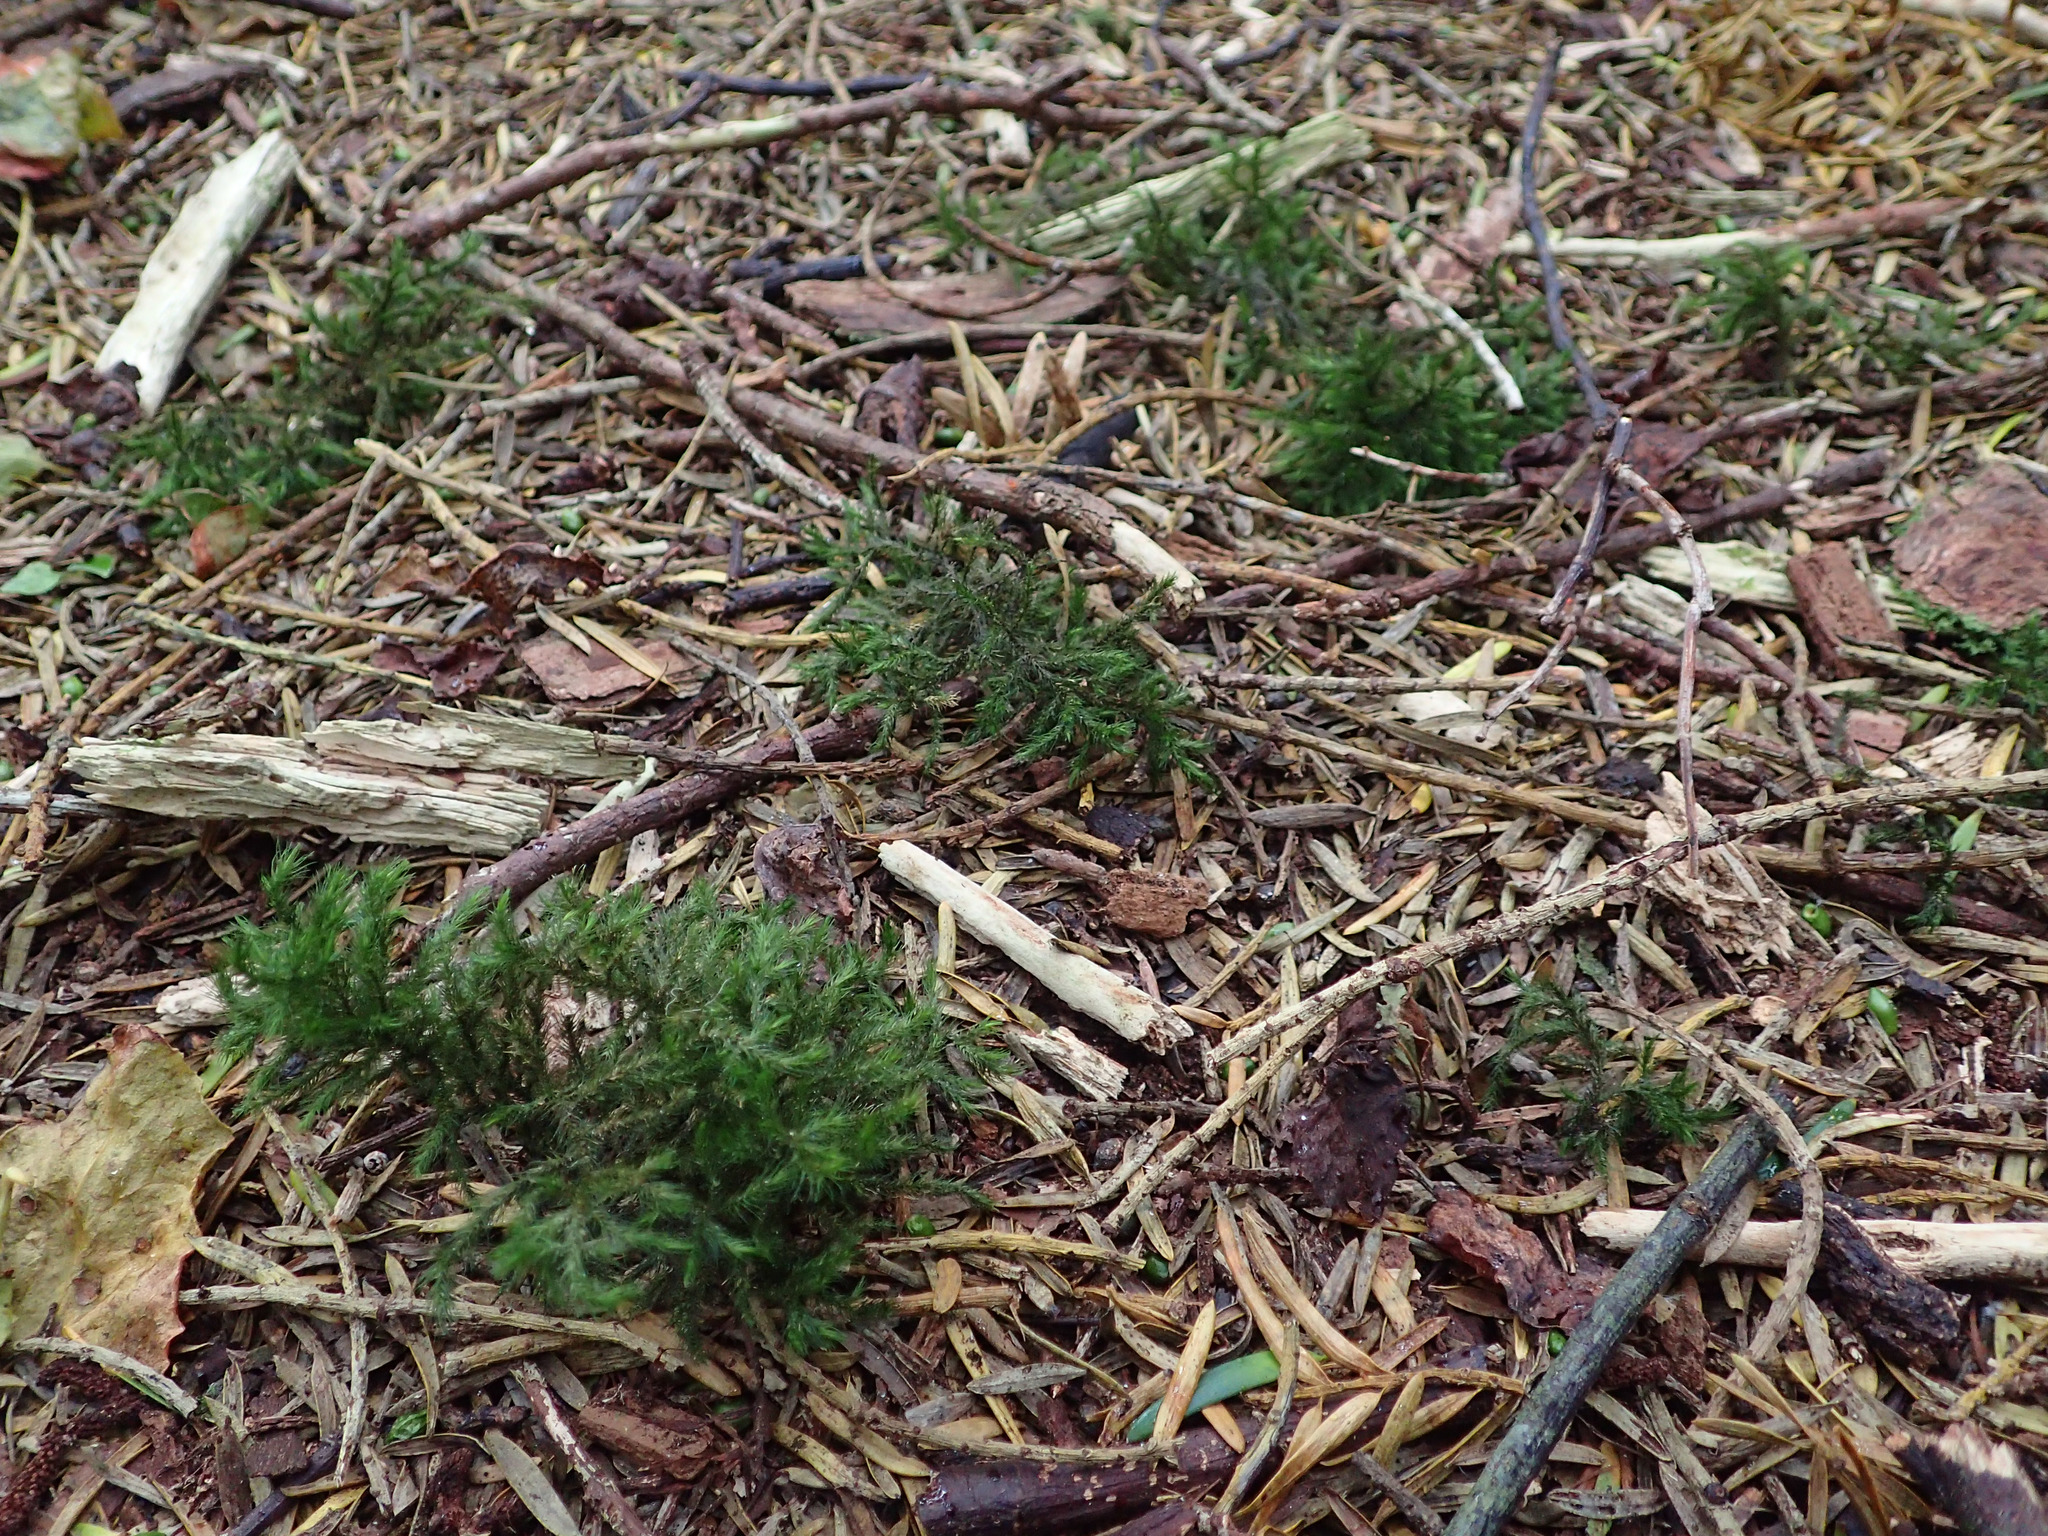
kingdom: Plantae
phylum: Bryophyta
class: Bryopsida
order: Hypnales
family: Neckeraceae
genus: Echinodiopsis
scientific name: Echinodiopsis hispida
